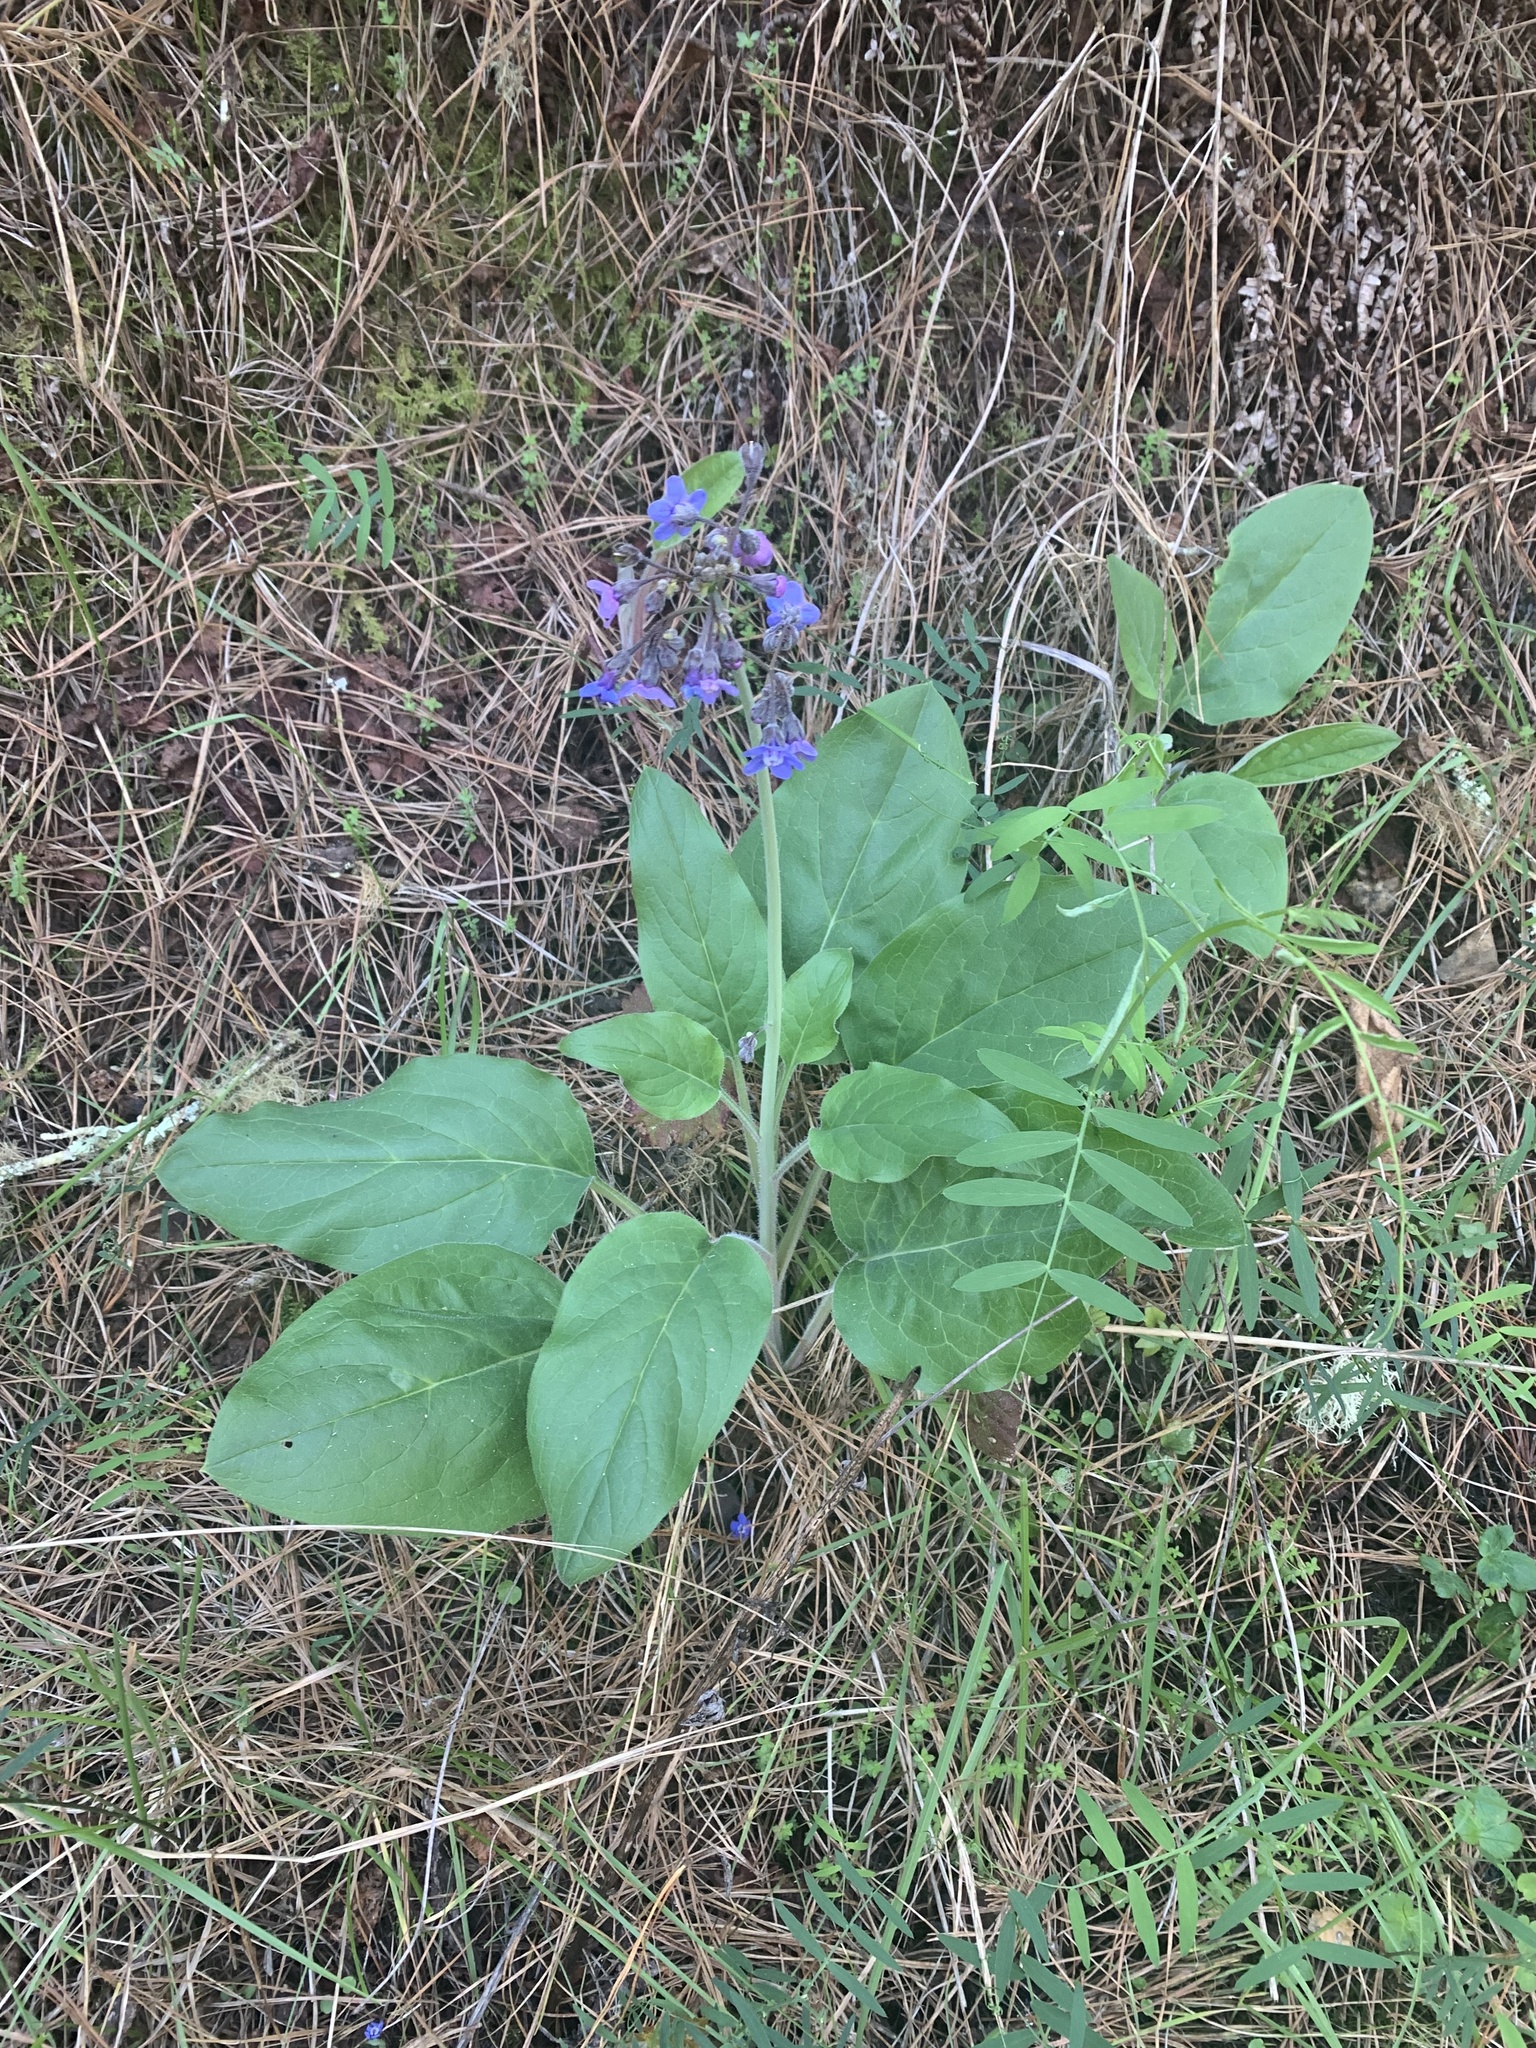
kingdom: Plantae
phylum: Tracheophyta
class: Magnoliopsida
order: Boraginales
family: Boraginaceae
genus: Adelinia
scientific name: Adelinia grande
